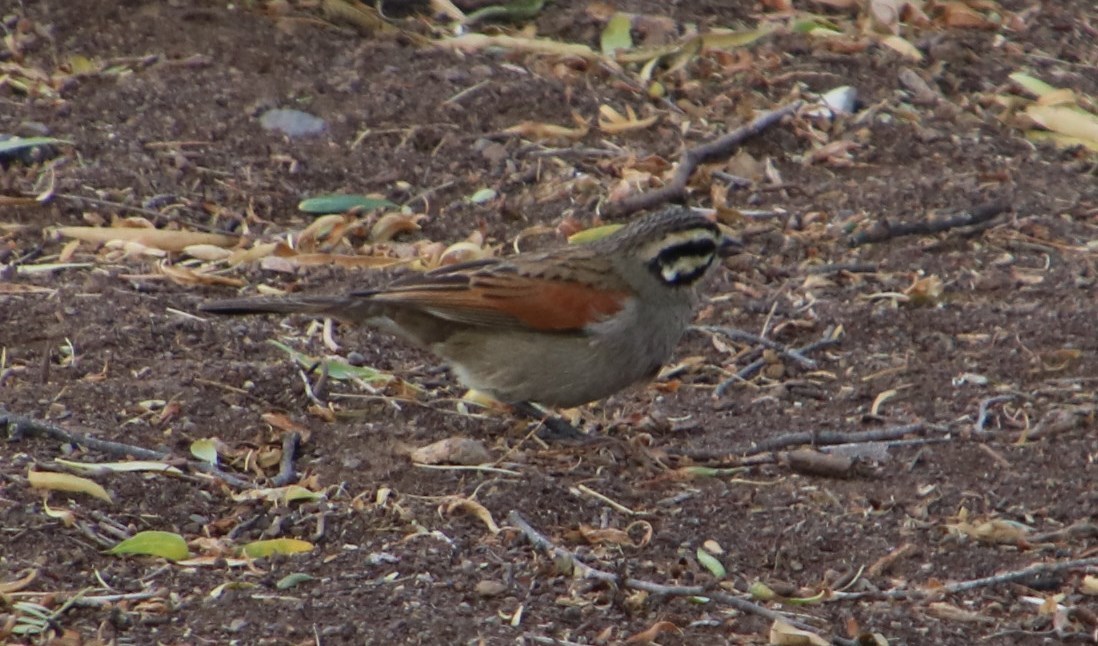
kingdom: Animalia
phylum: Chordata
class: Aves
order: Passeriformes
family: Emberizidae
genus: Emberiza
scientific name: Emberiza capensis
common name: Cape bunting
